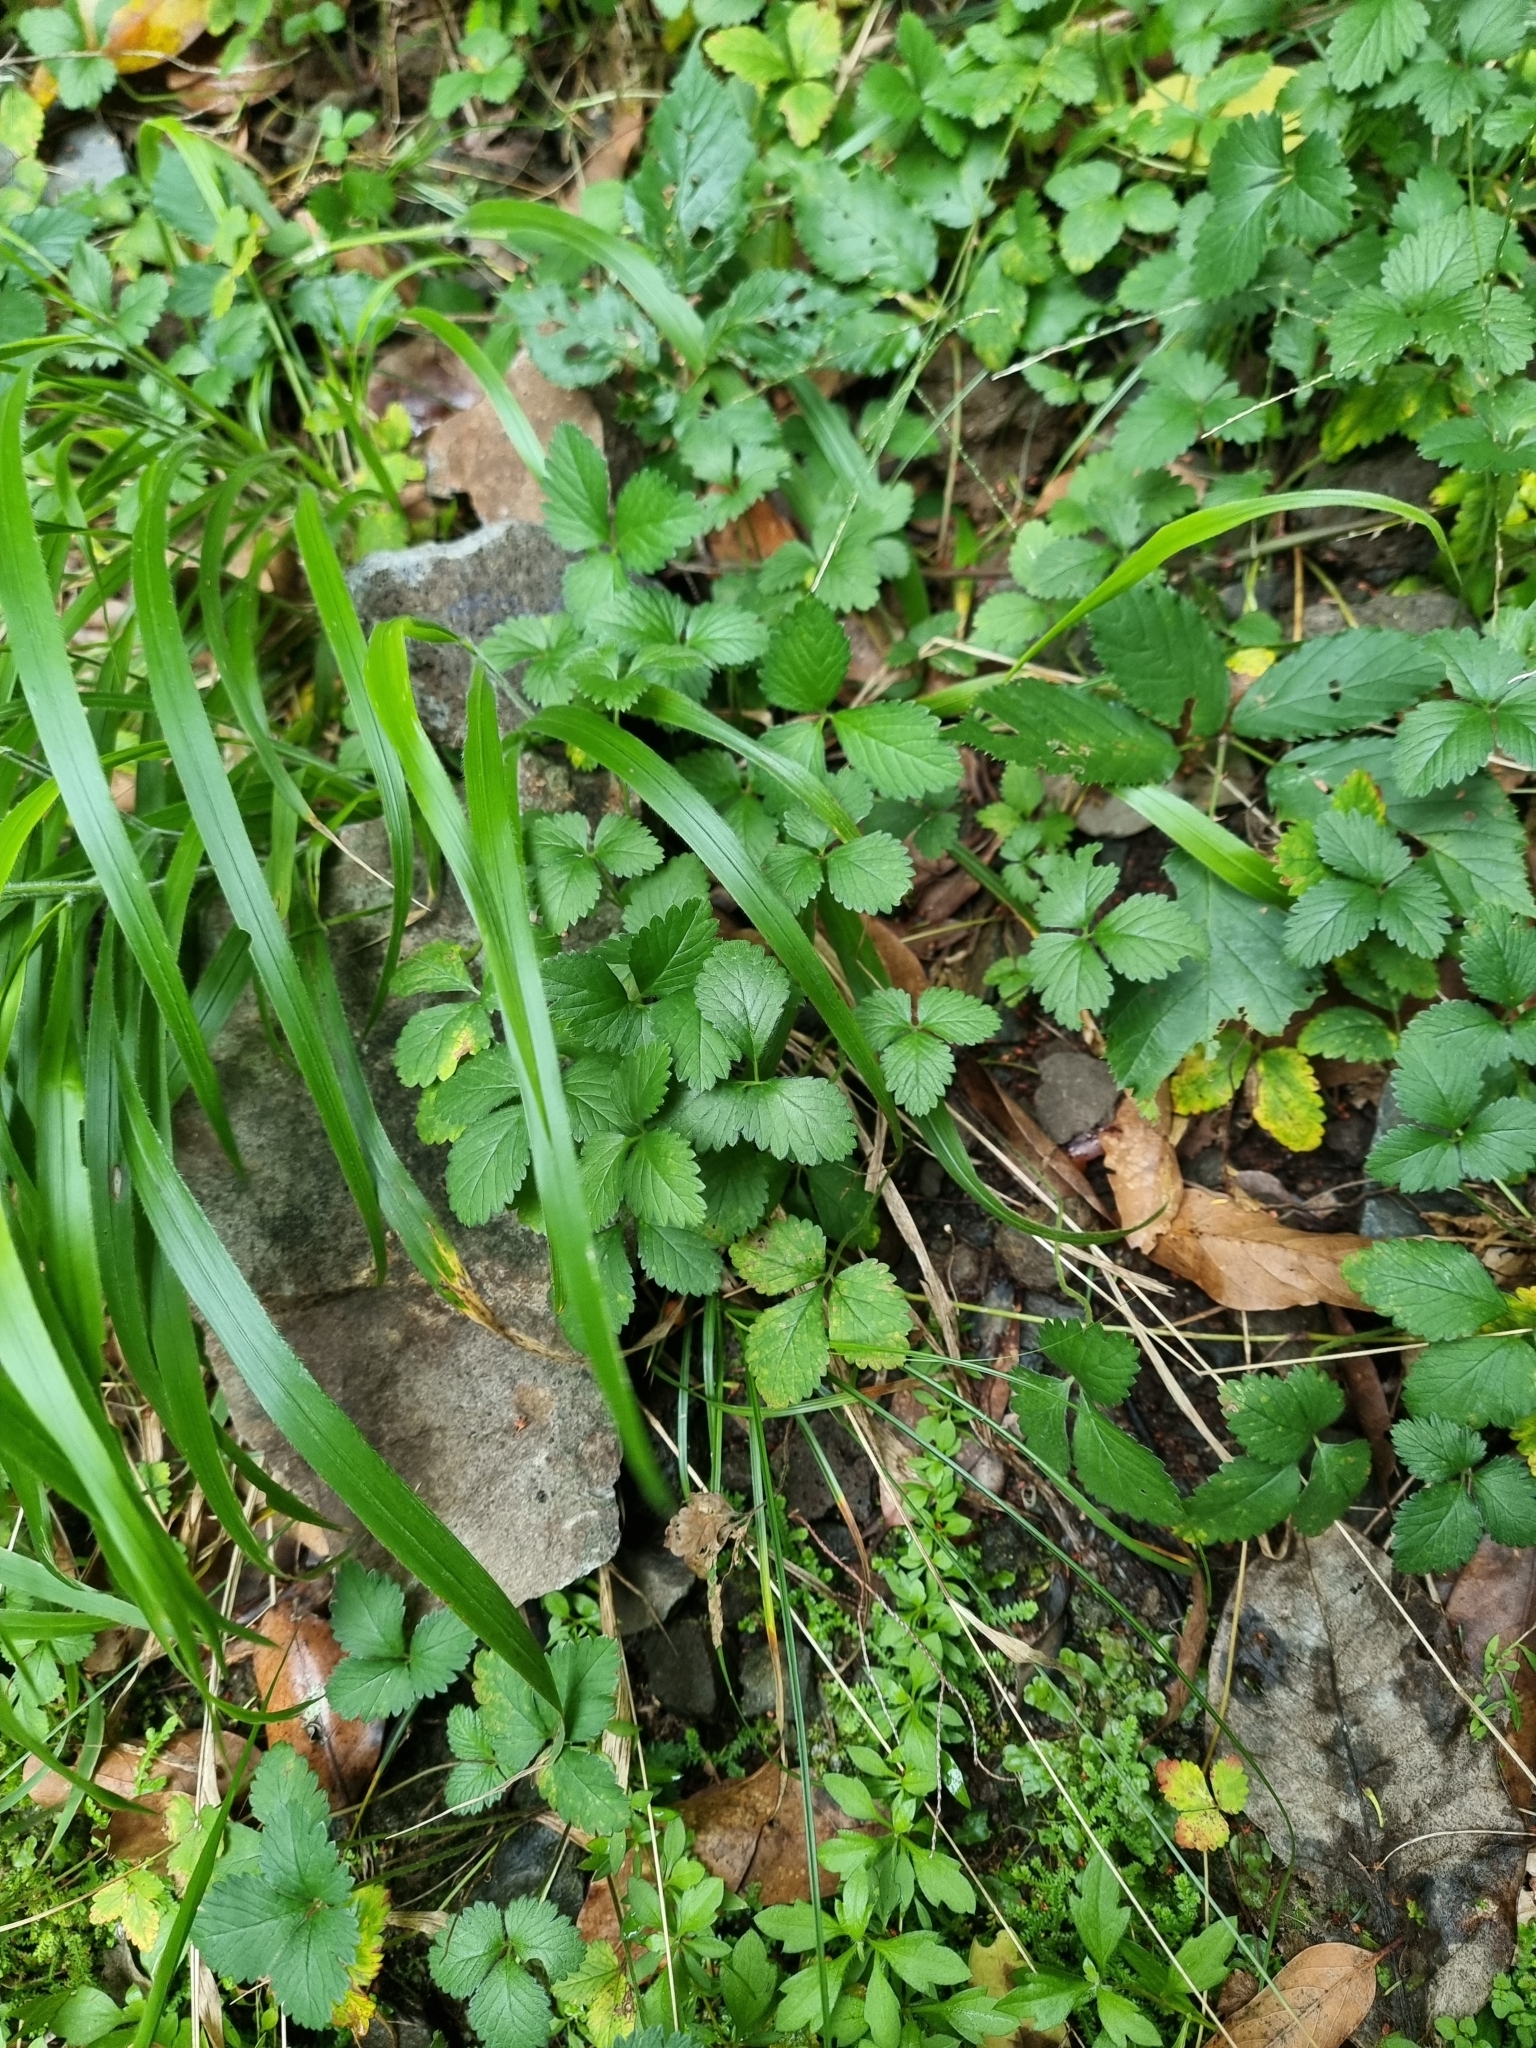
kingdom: Plantae
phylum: Tracheophyta
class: Magnoliopsida
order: Rosales
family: Rosaceae
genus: Potentilla
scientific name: Potentilla indica
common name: Yellow-flowered strawberry
